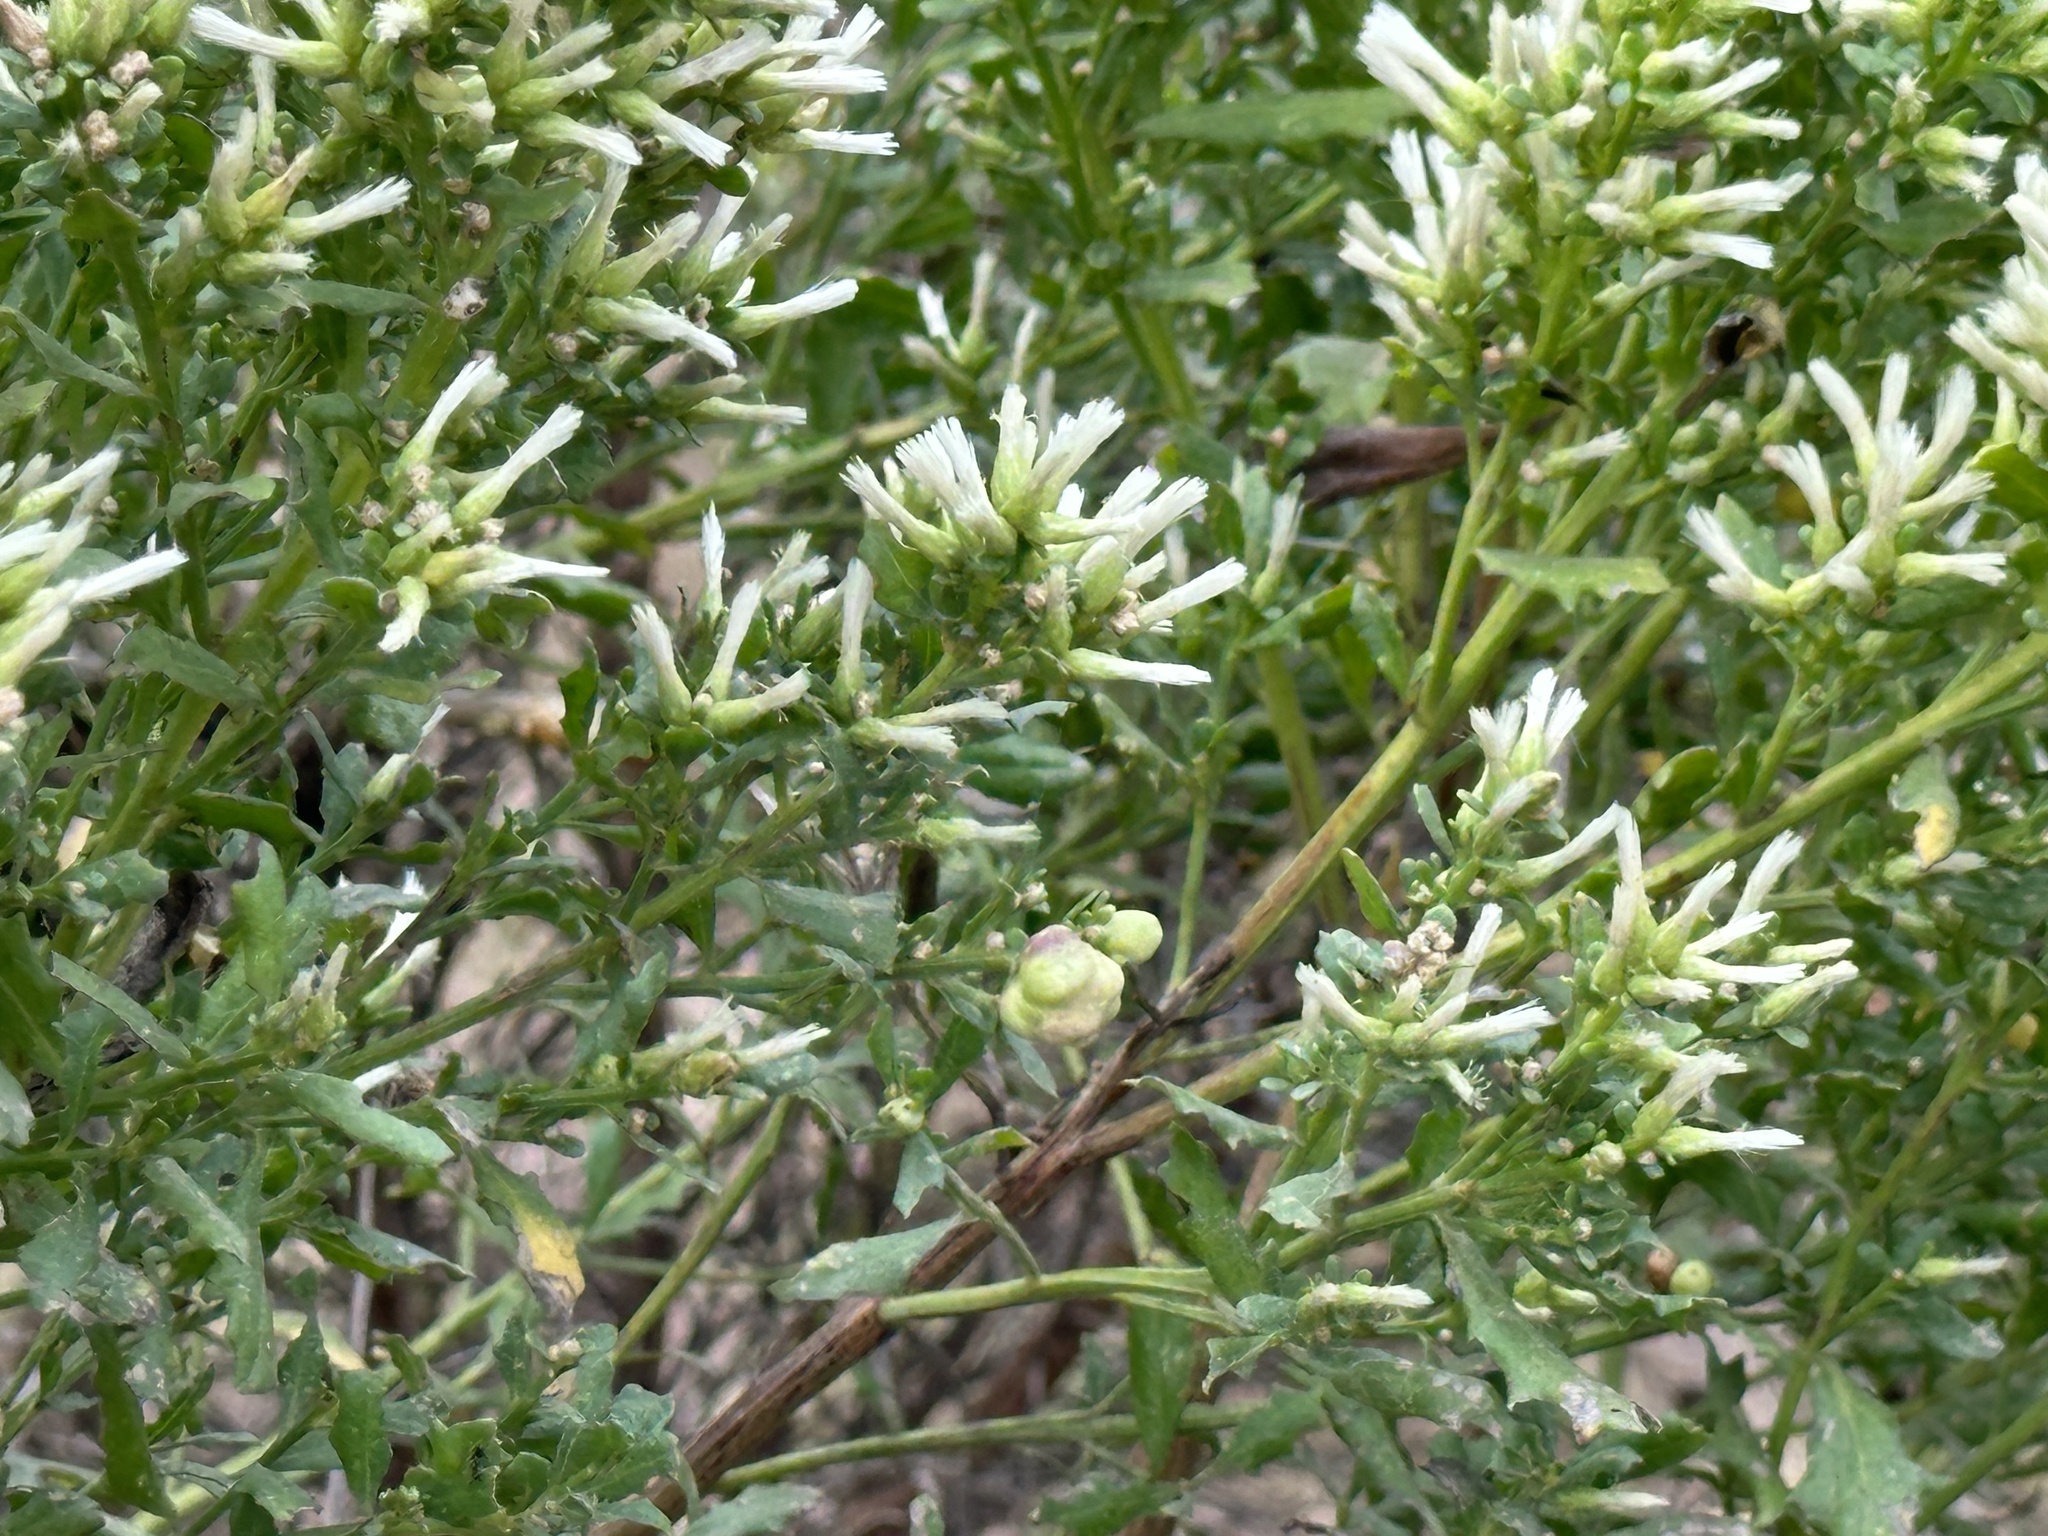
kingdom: Animalia
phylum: Arthropoda
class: Insecta
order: Diptera
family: Cecidomyiidae
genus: Rhopalomyia
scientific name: Rhopalomyia californica
